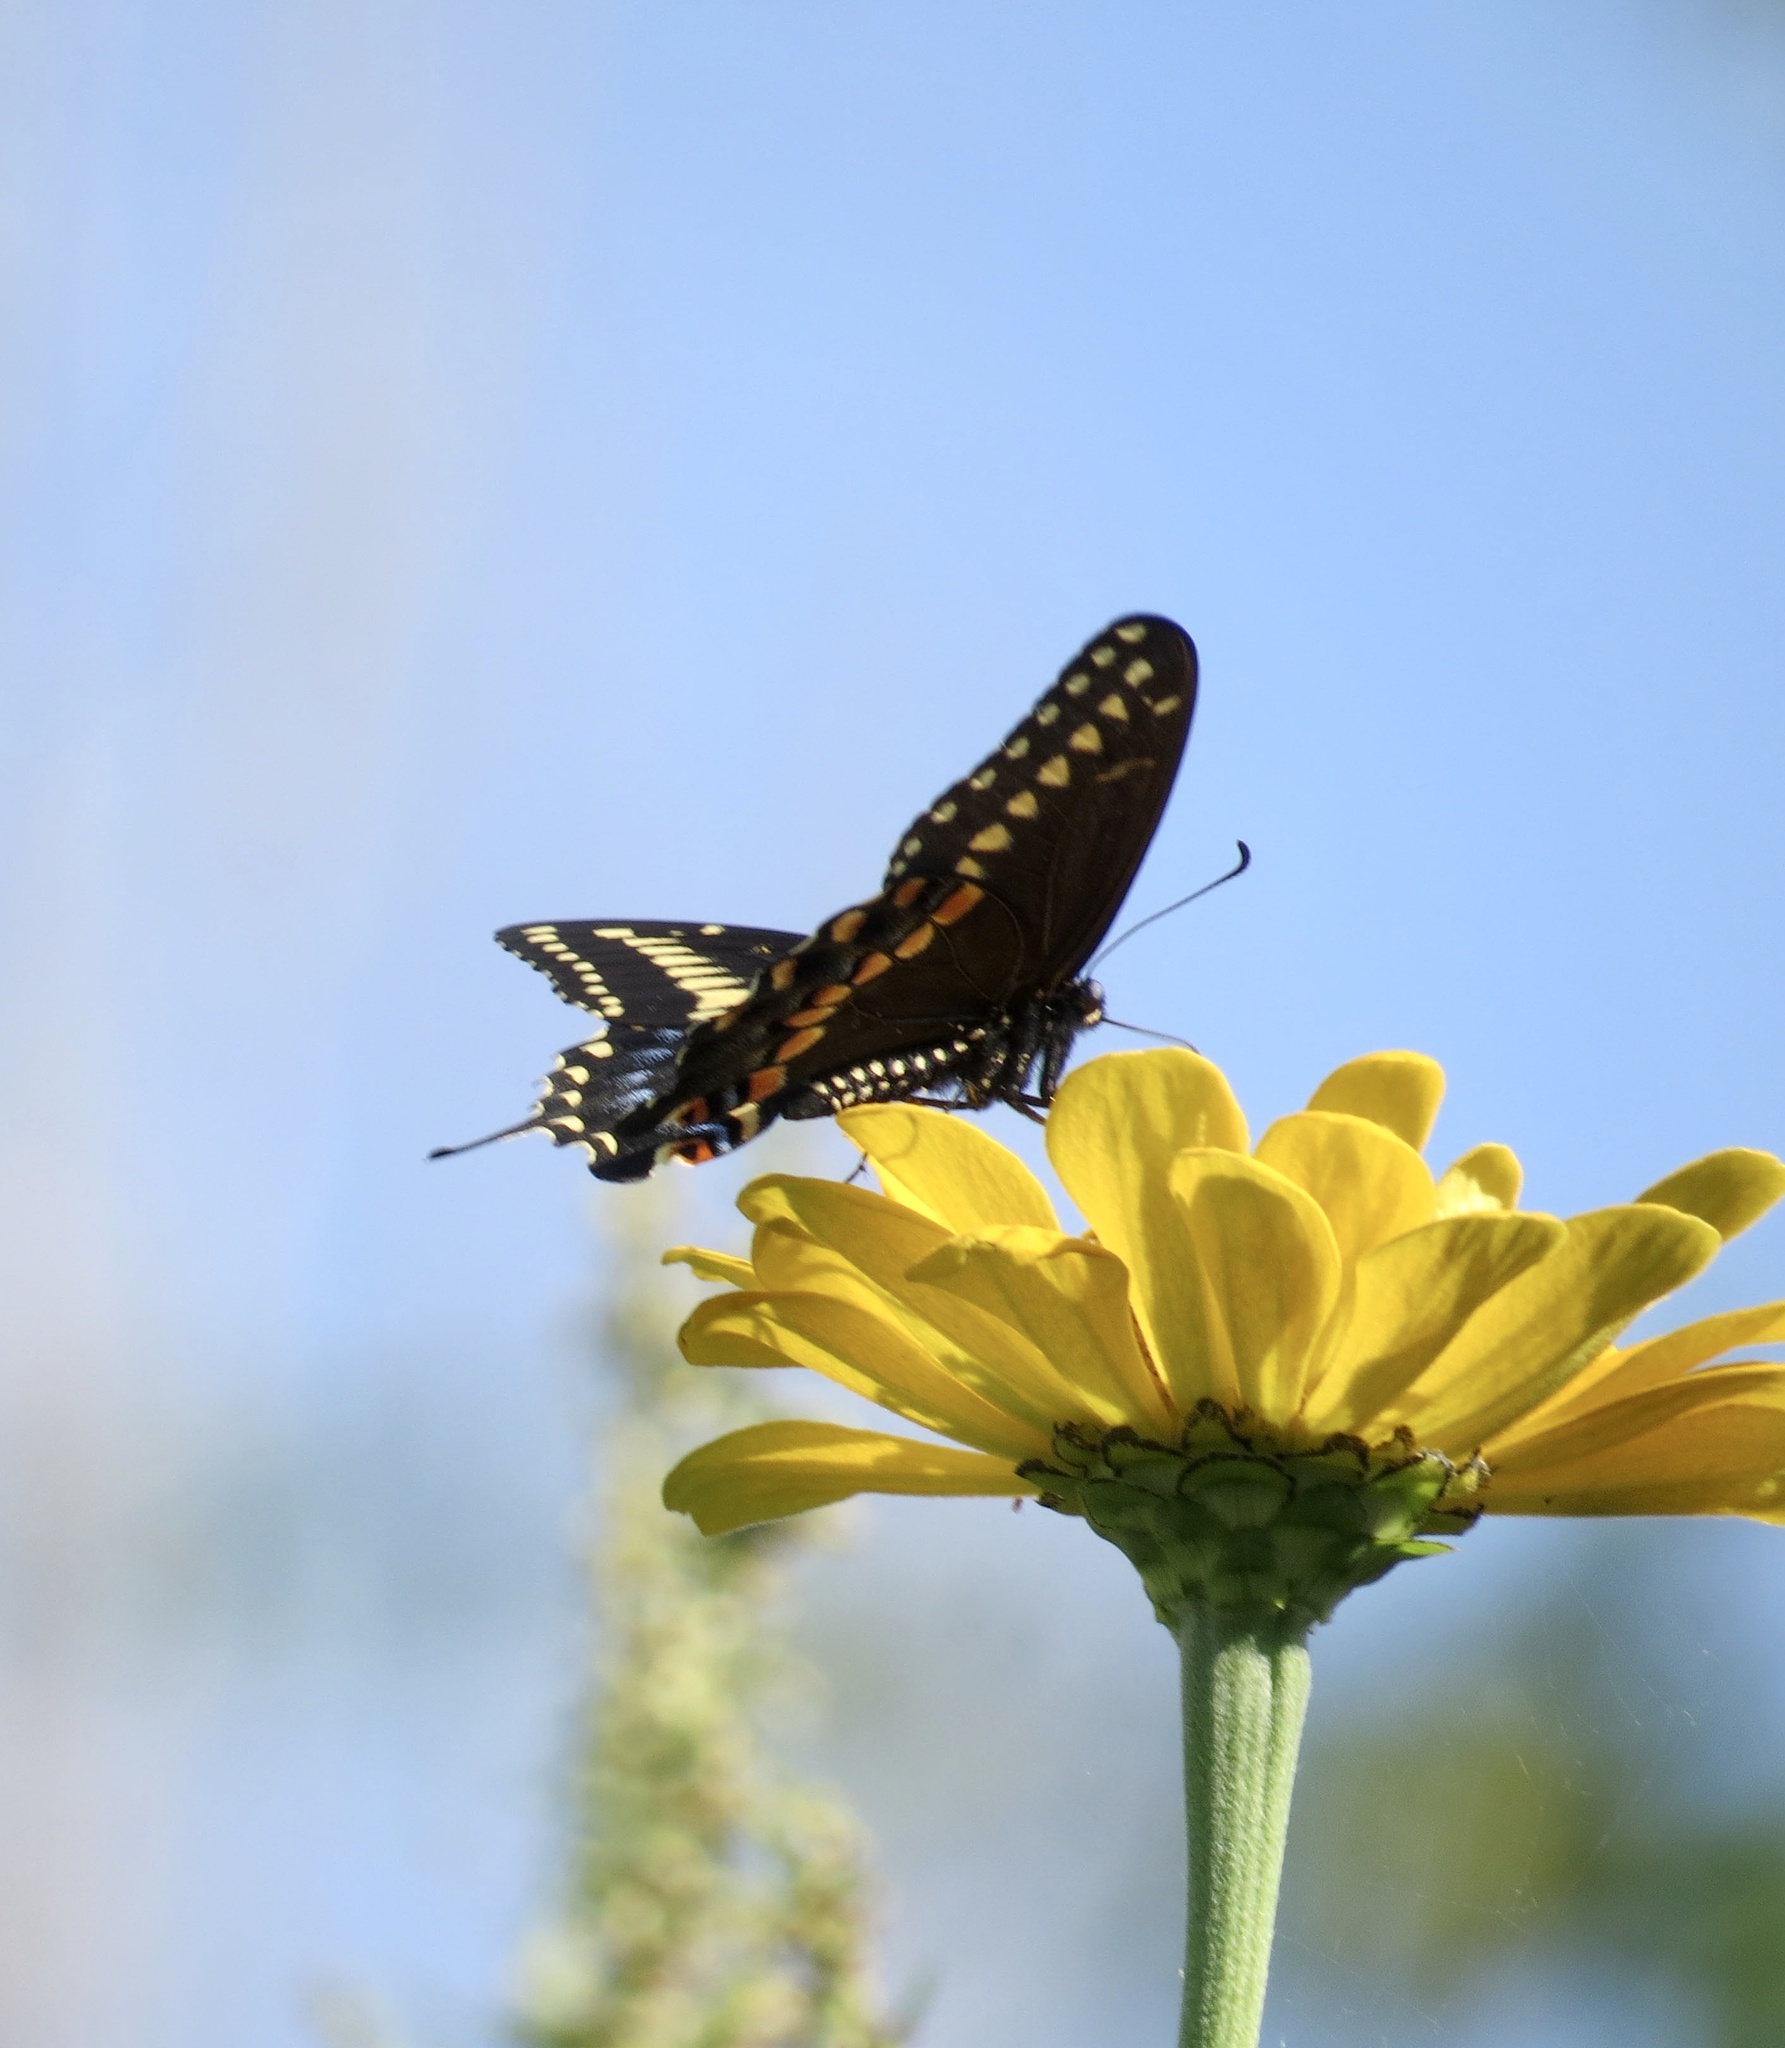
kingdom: Animalia
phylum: Arthropoda
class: Insecta
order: Lepidoptera
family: Papilionidae
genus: Papilio
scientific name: Papilio polyxenes
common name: Black swallowtail
